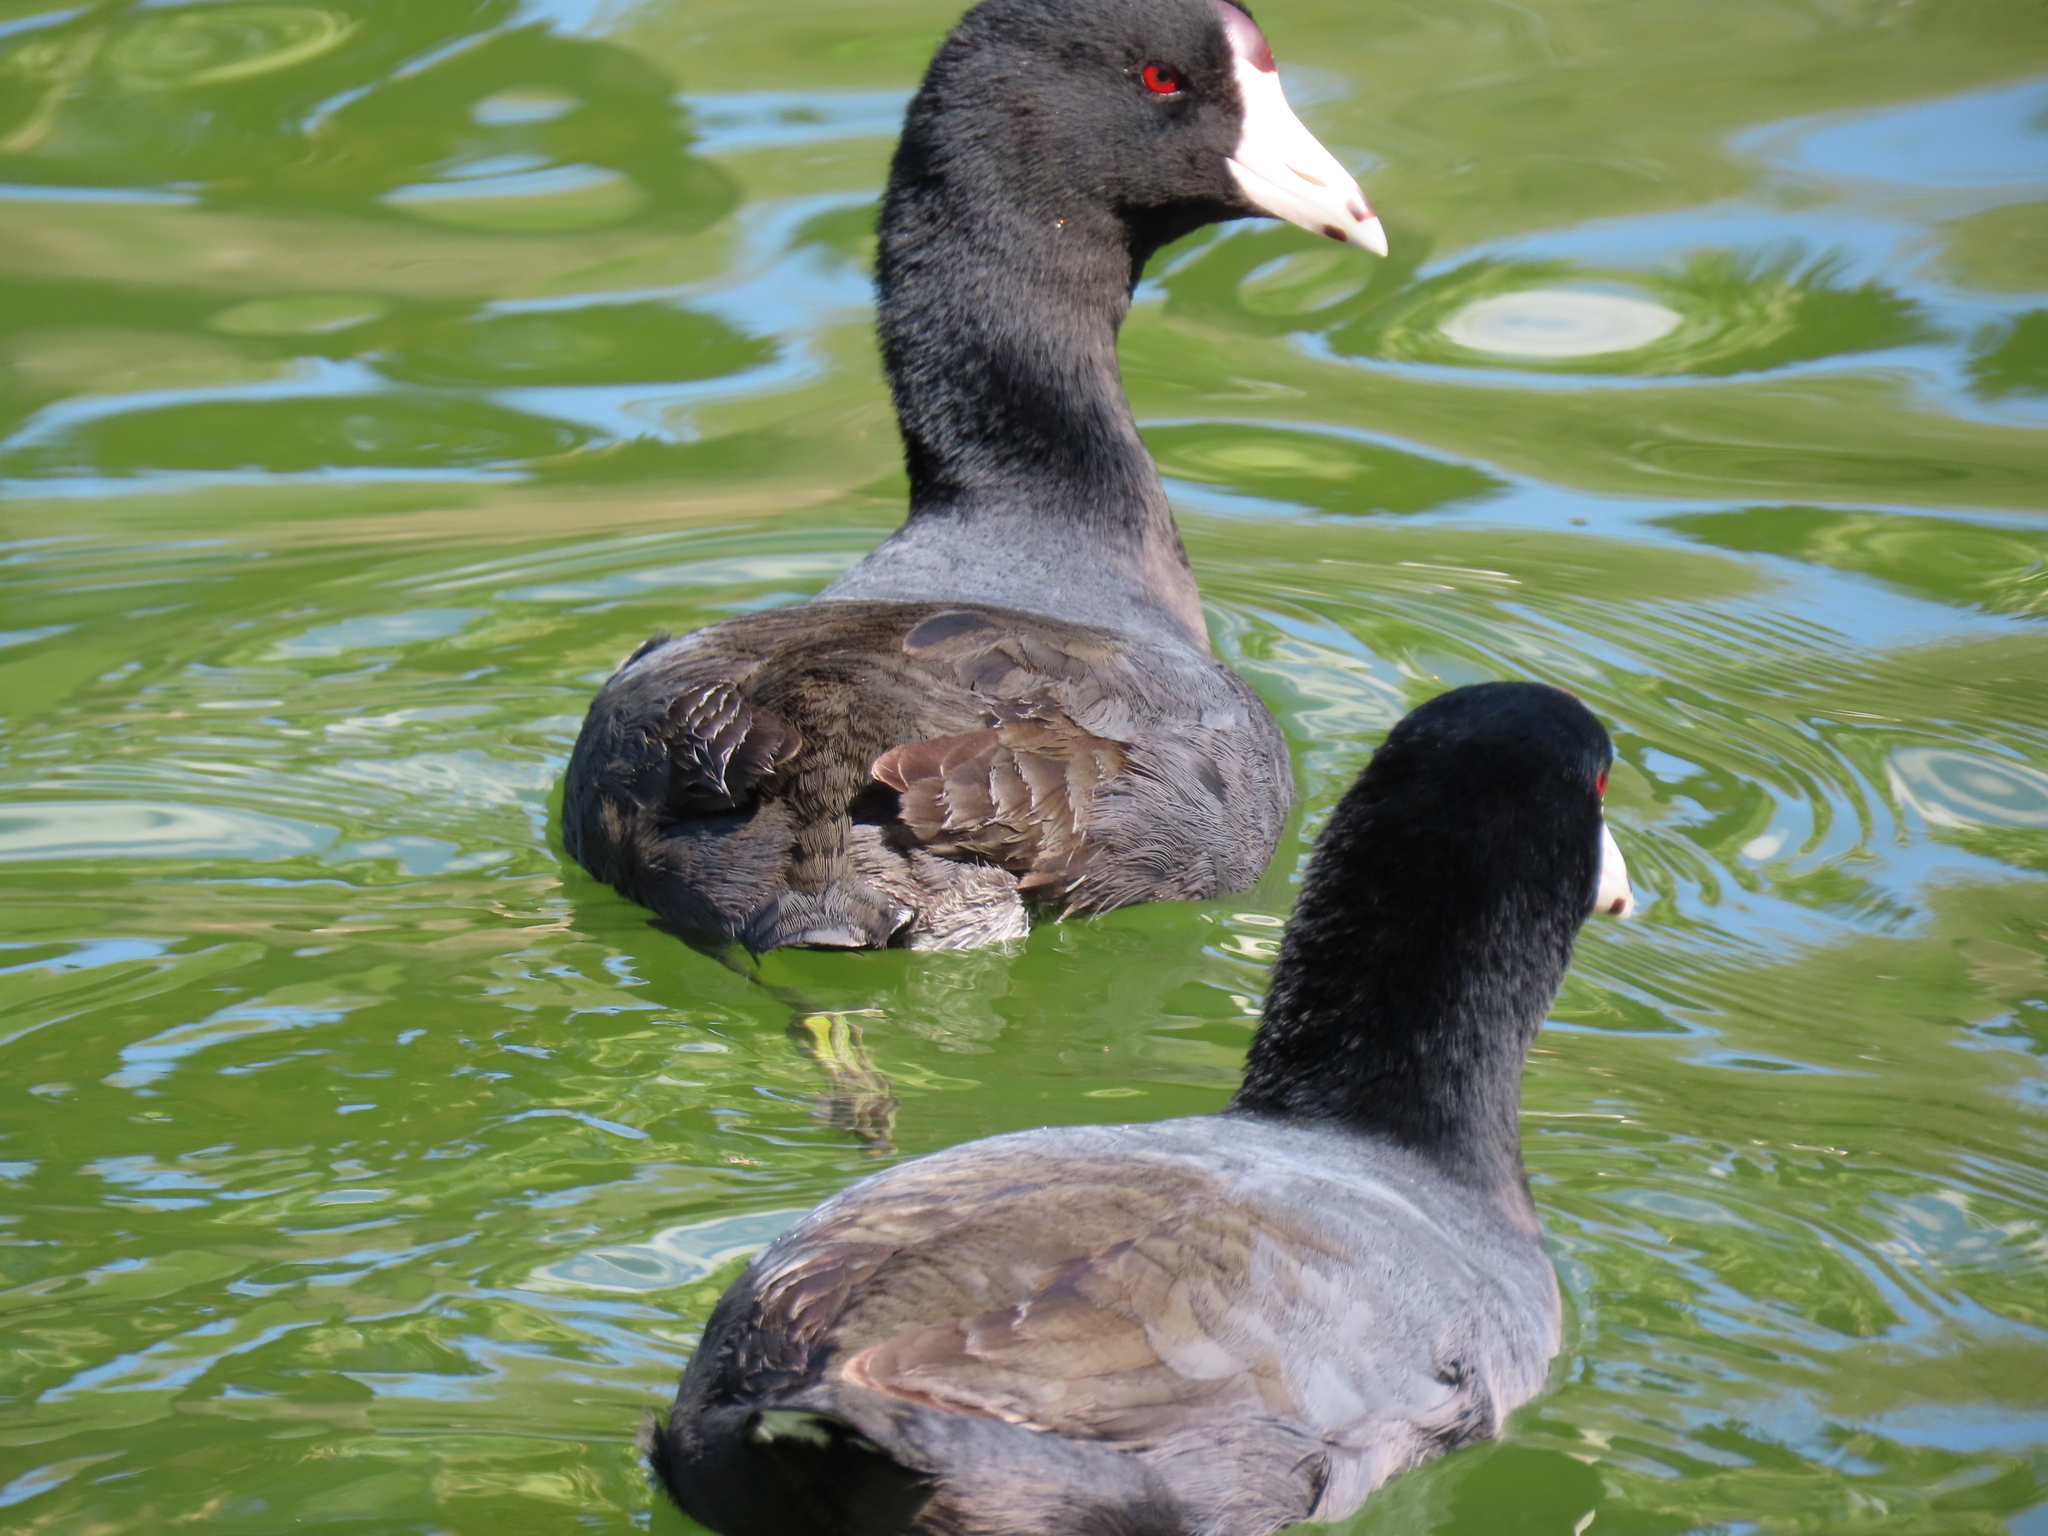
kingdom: Animalia
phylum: Chordata
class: Aves
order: Gruiformes
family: Rallidae
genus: Fulica
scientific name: Fulica americana
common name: American coot
